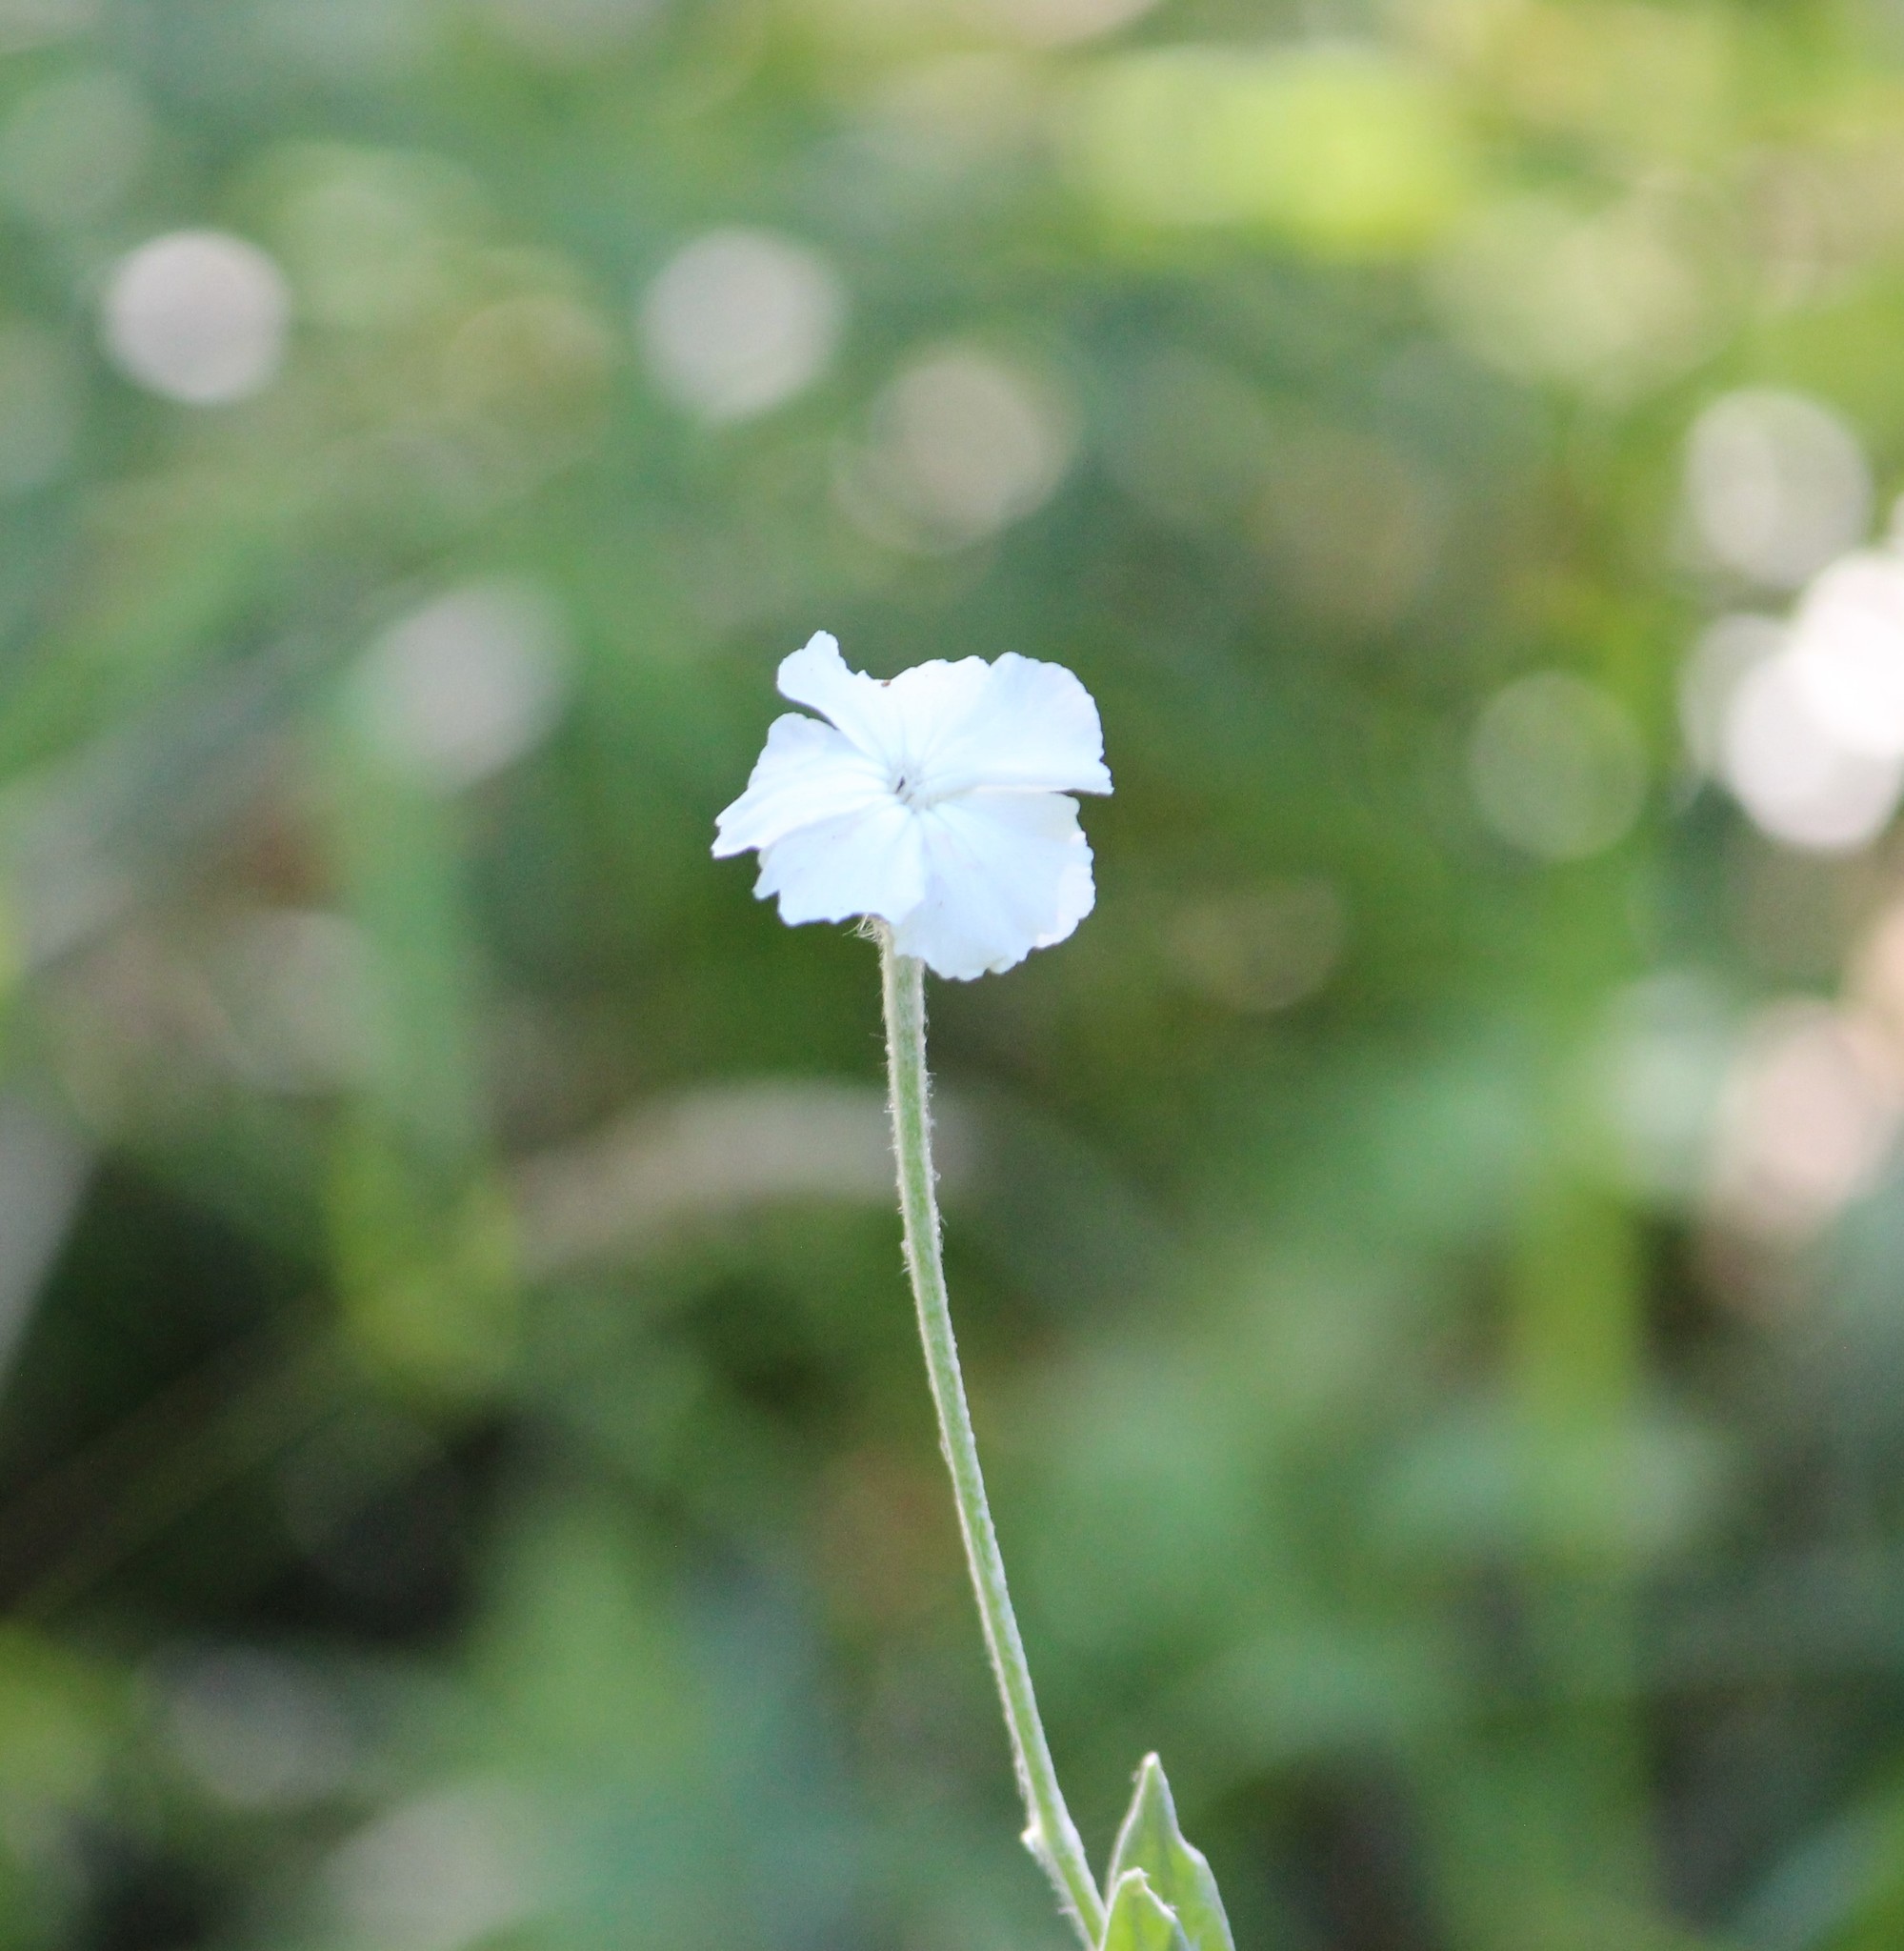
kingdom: Plantae
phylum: Tracheophyta
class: Magnoliopsida
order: Caryophyllales
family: Caryophyllaceae
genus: Silene
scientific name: Silene coronaria
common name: Rose campion
